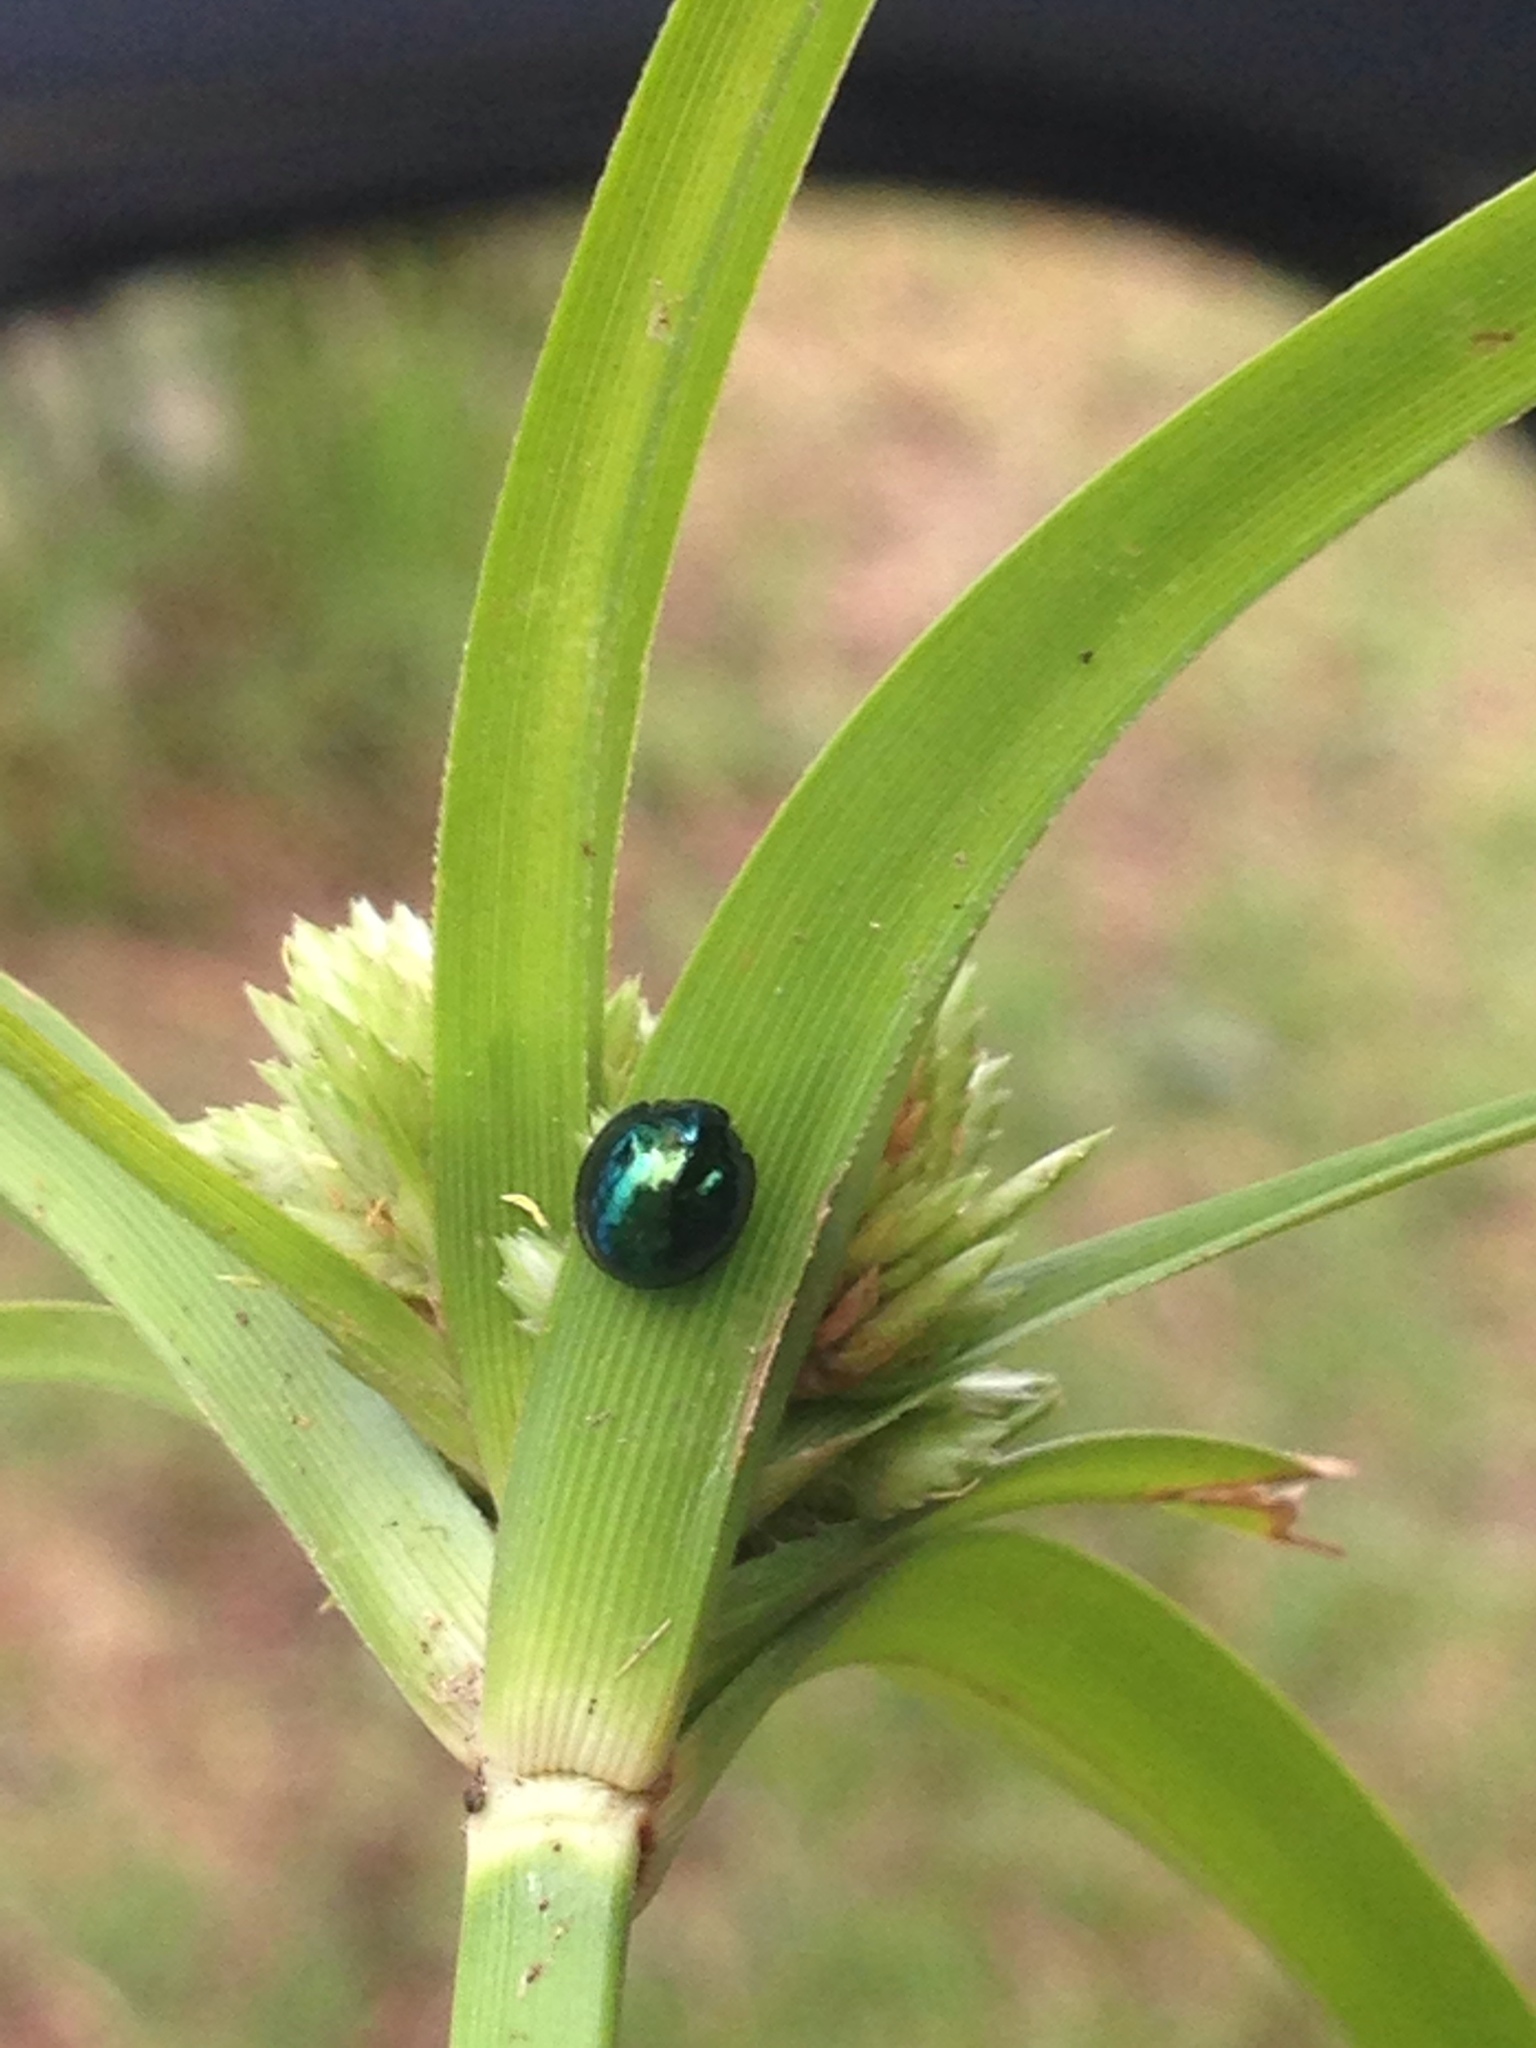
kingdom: Animalia
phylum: Arthropoda
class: Insecta
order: Coleoptera
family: Coccinellidae
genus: Halmus
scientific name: Halmus chalybeus
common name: Steel blue ladybird beetle
